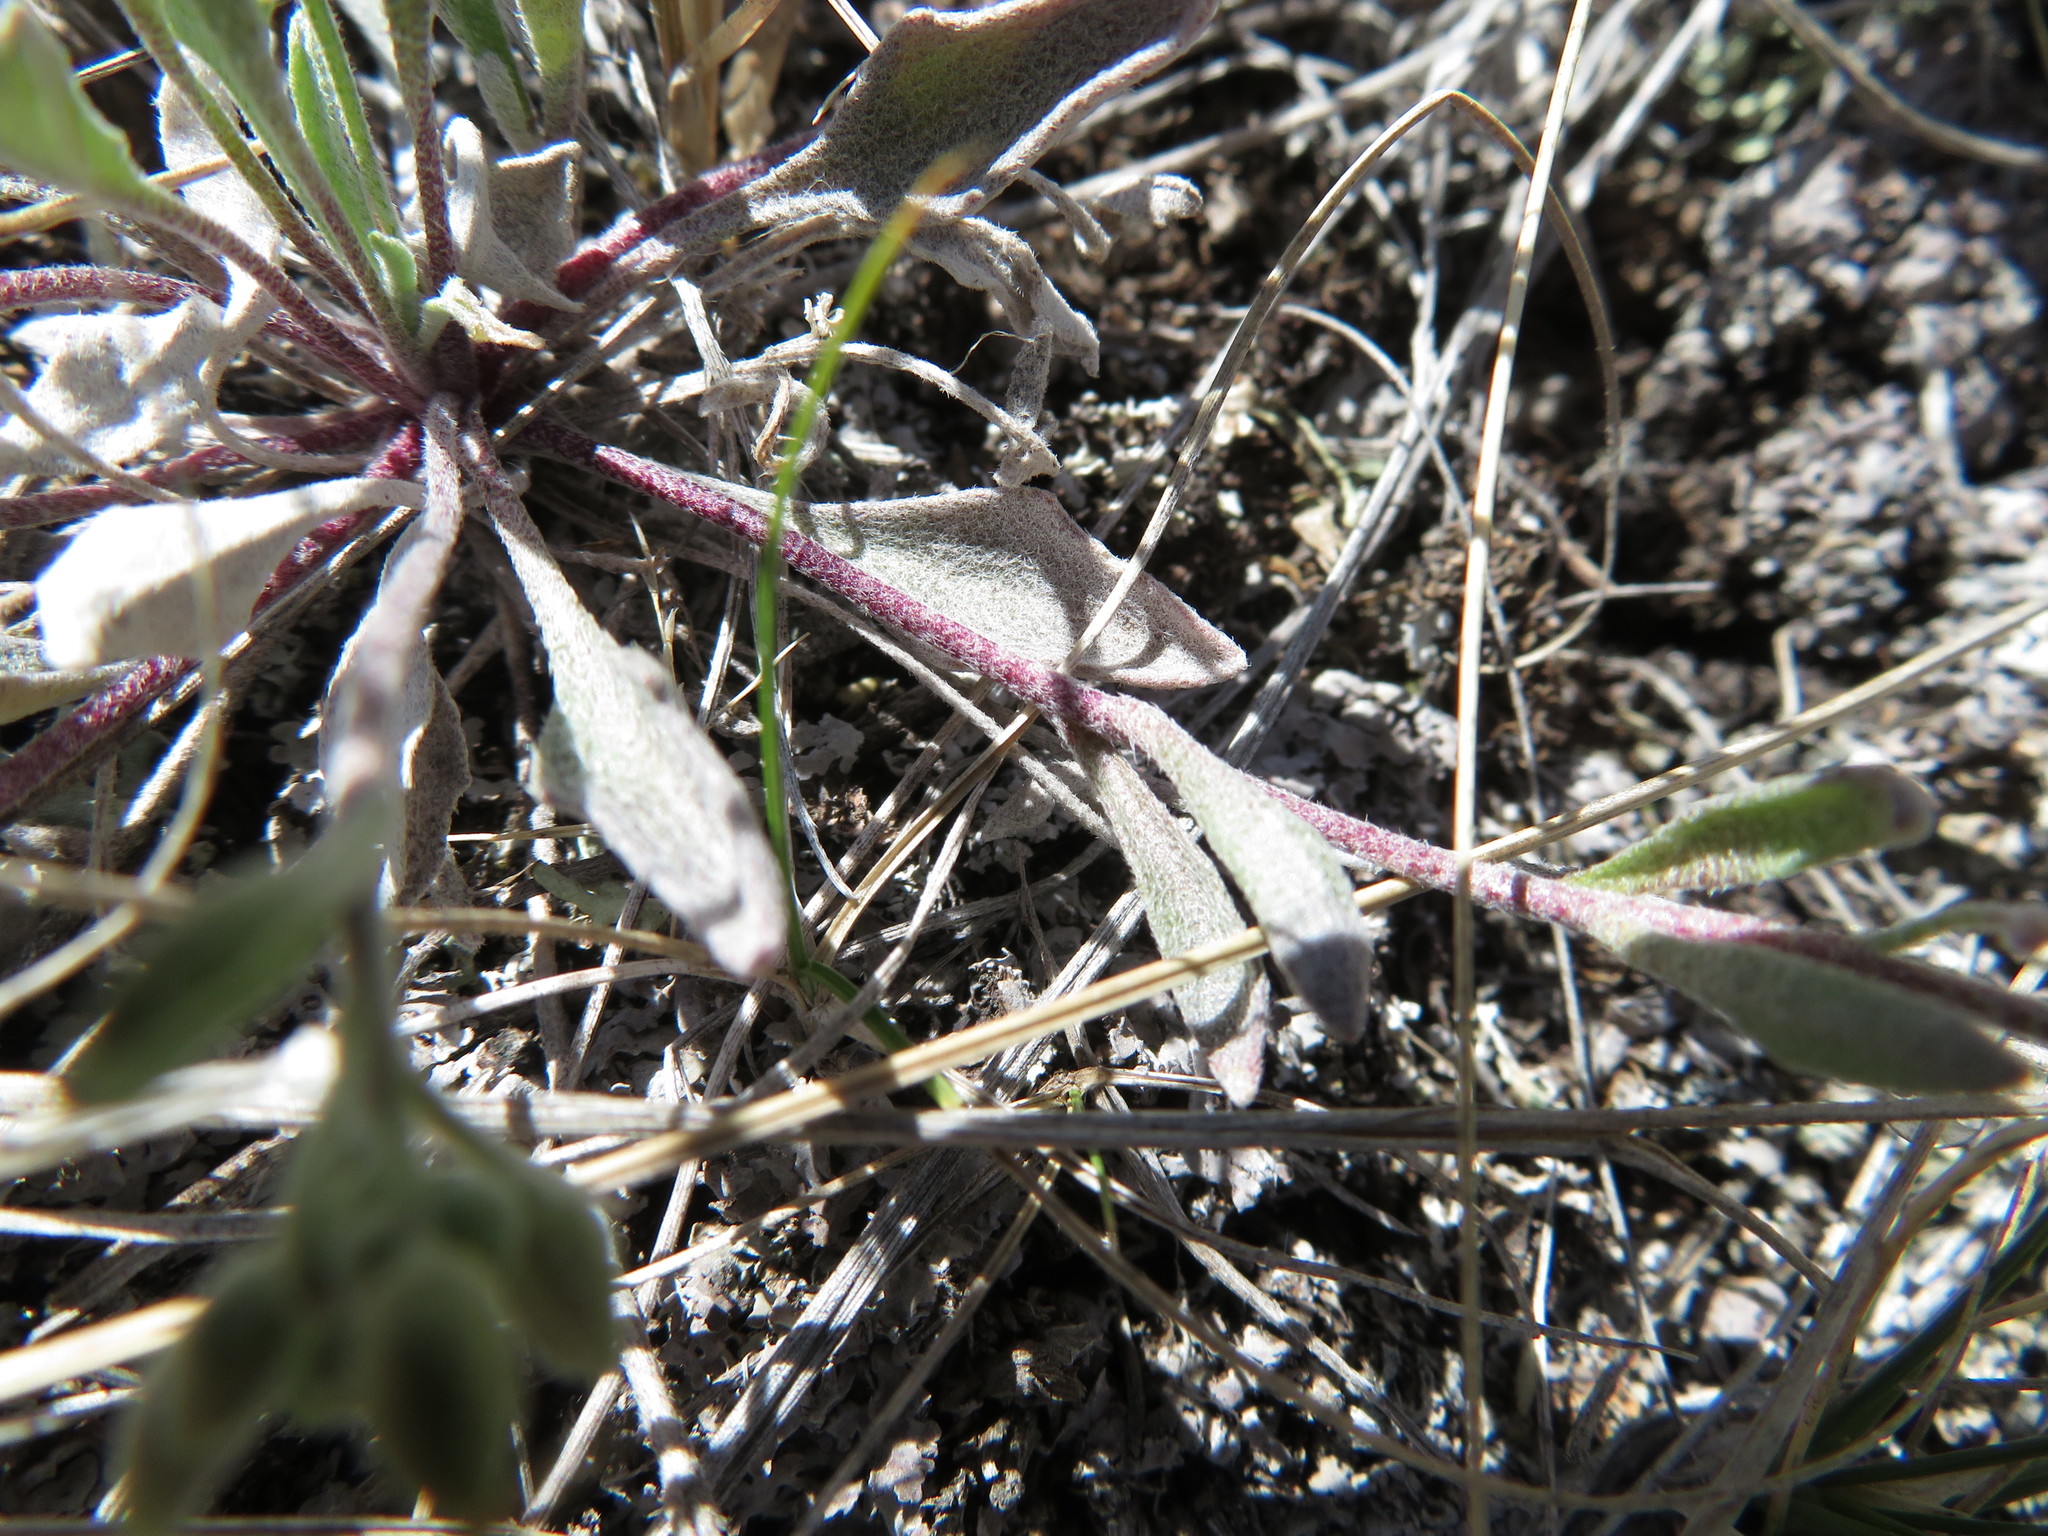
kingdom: Plantae
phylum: Tracheophyta
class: Magnoliopsida
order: Brassicales
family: Brassicaceae
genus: Physaria
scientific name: Physaria arenosa
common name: Great plains bladderpod
